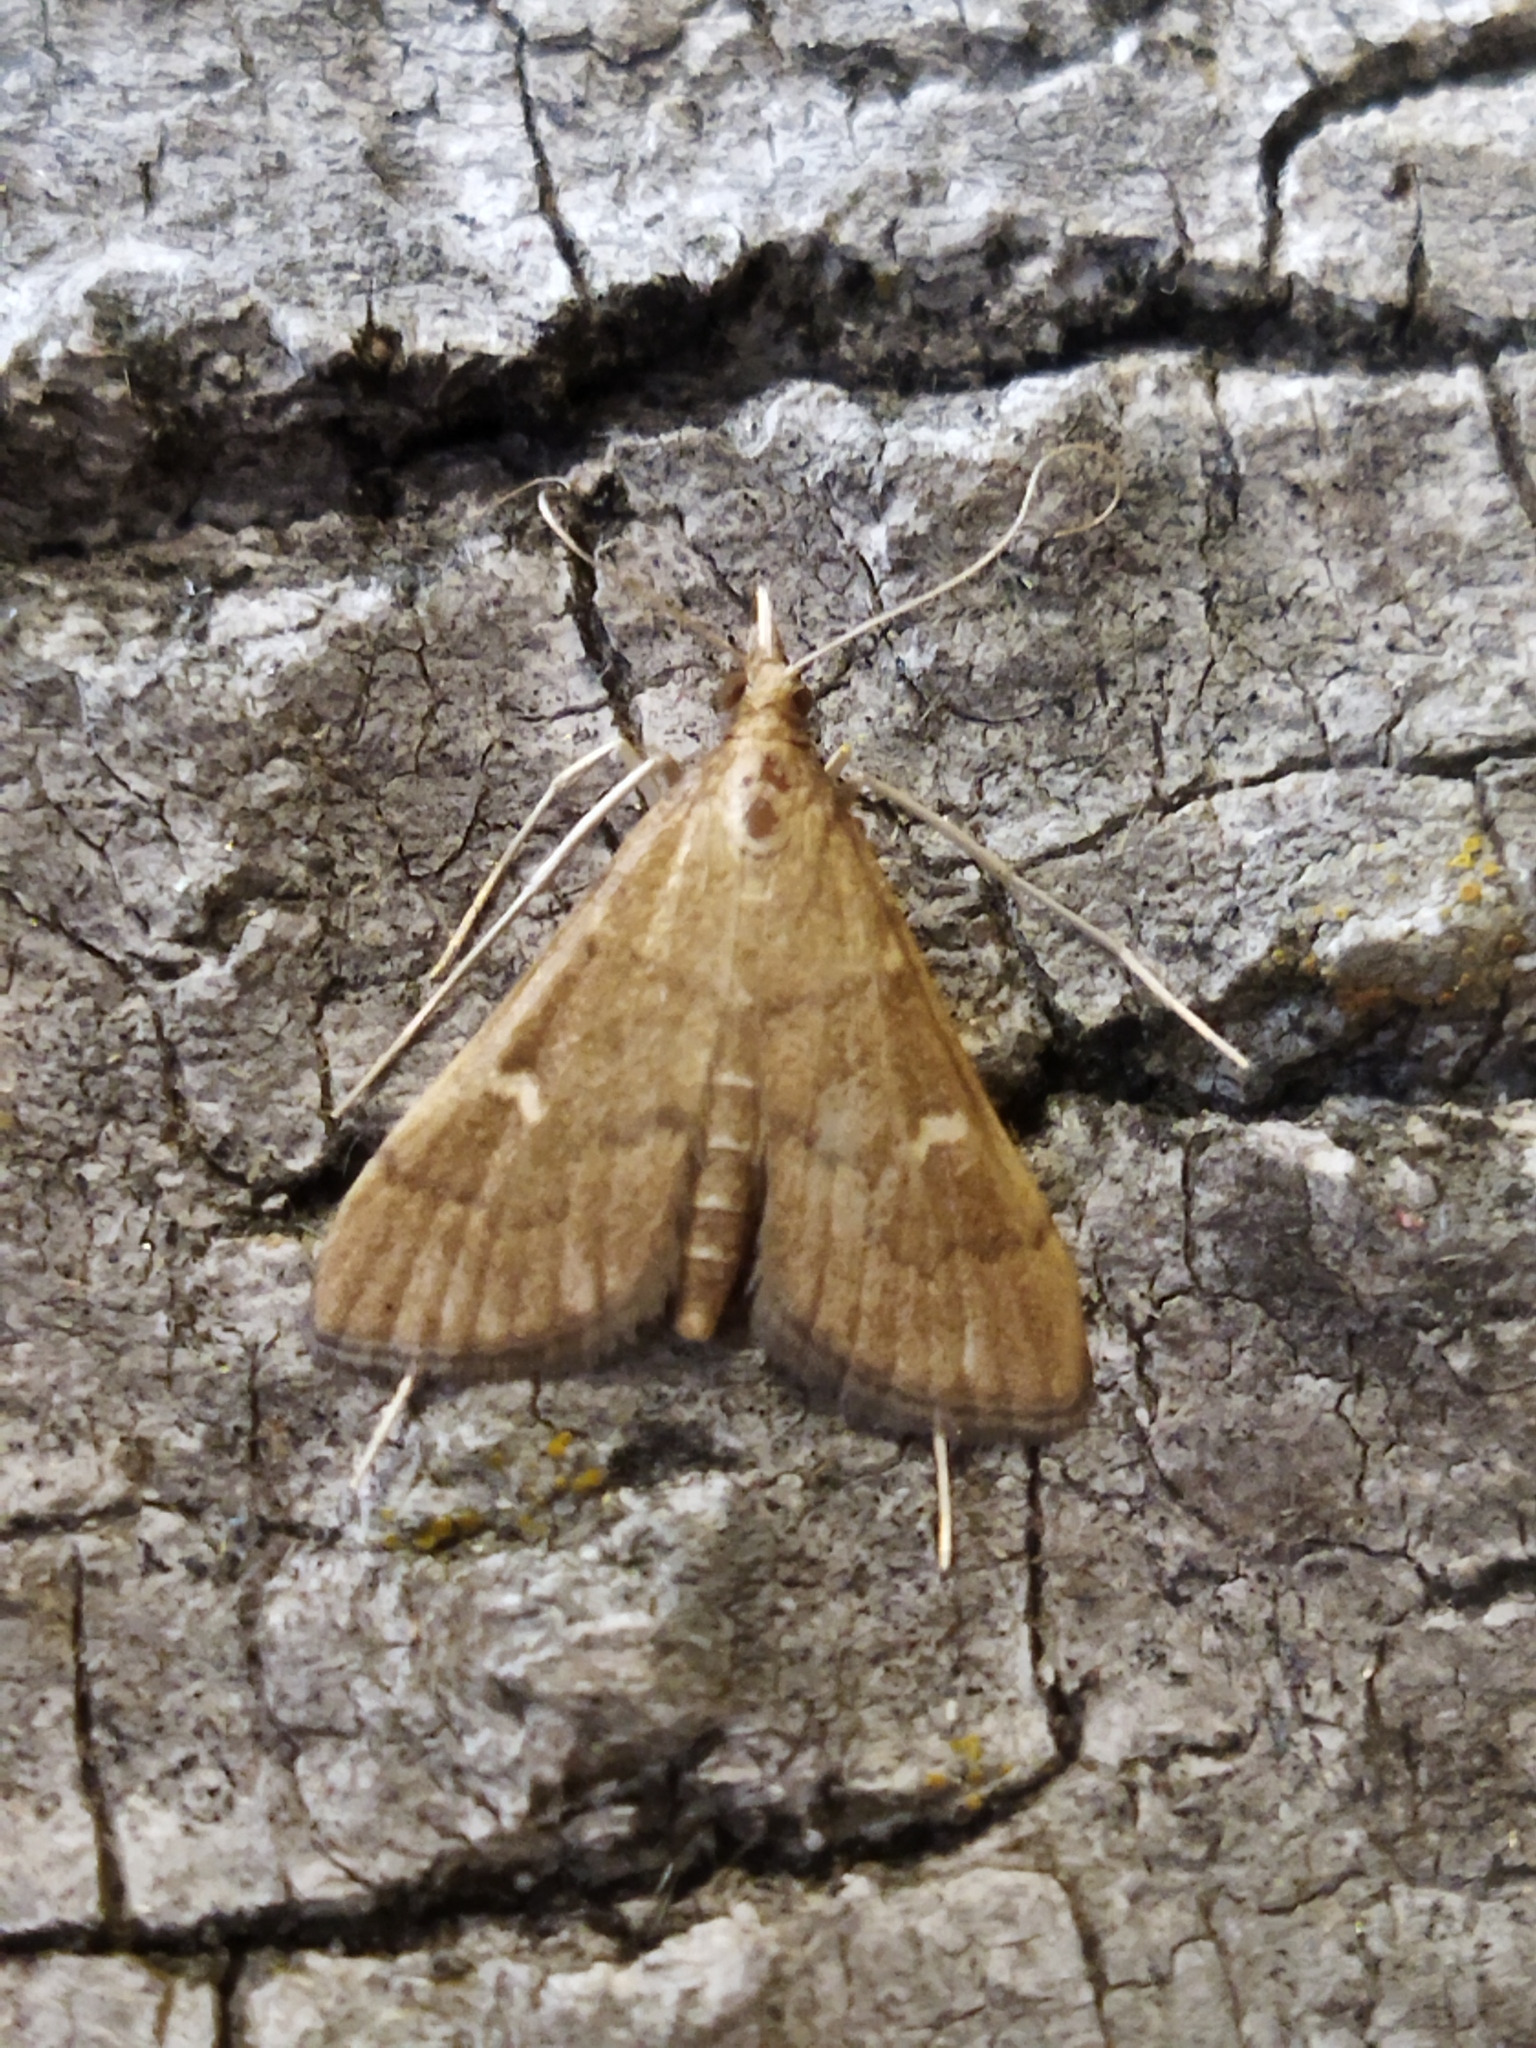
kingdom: Animalia
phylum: Arthropoda
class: Insecta
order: Lepidoptera
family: Crambidae
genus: Stenia
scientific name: Stenia Dolicharthria punctalis
